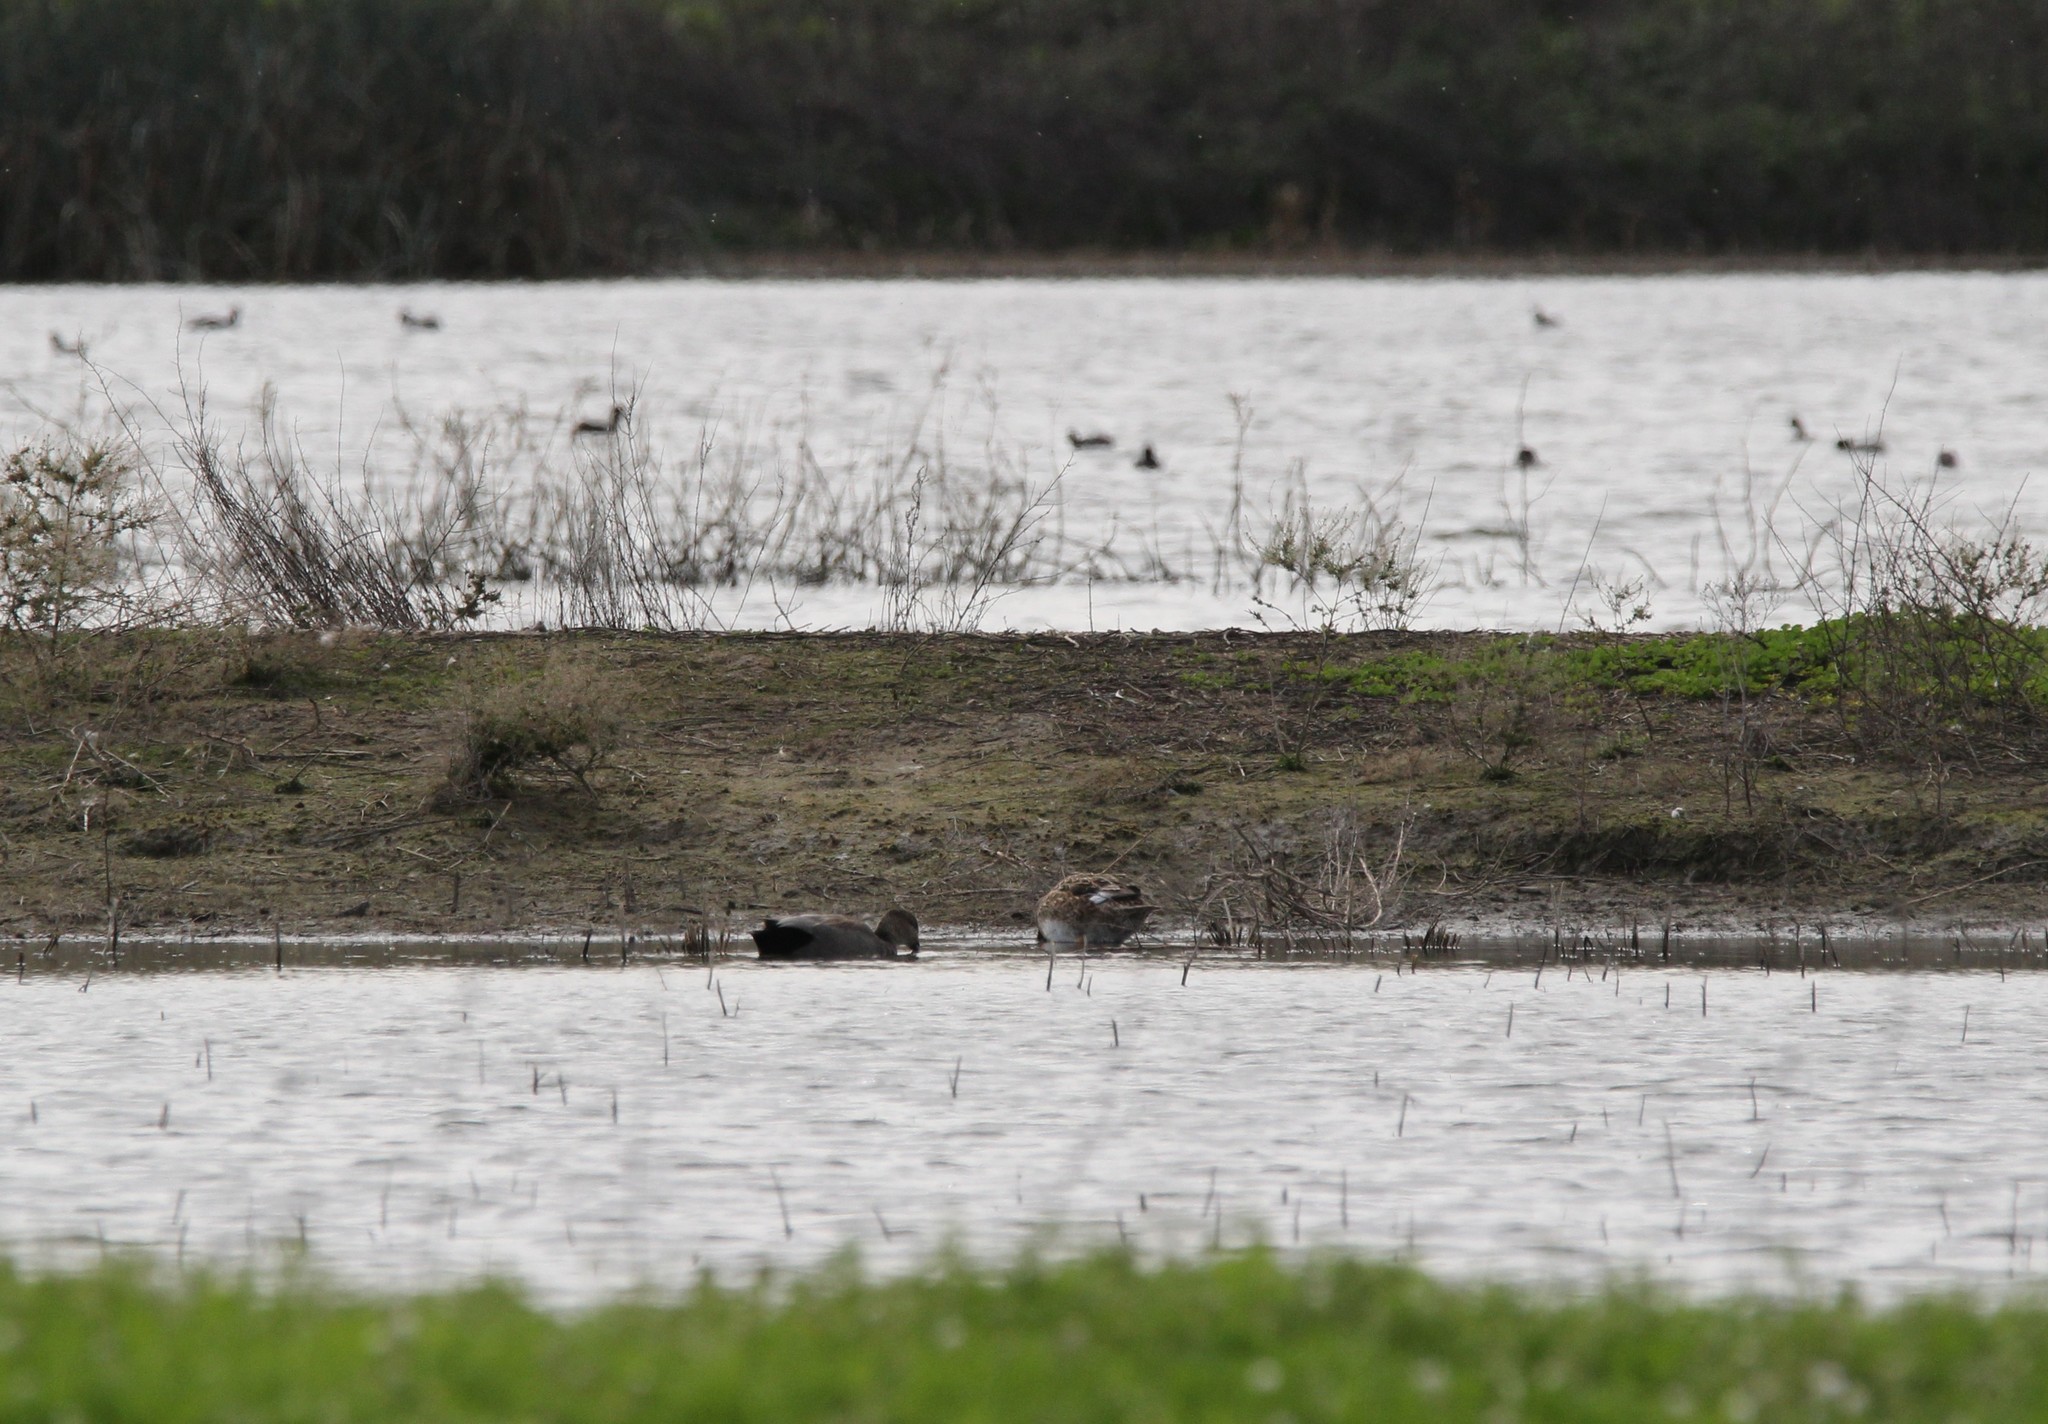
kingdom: Animalia
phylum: Chordata
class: Aves
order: Anseriformes
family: Anatidae
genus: Mareca
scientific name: Mareca strepera
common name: Gadwall
